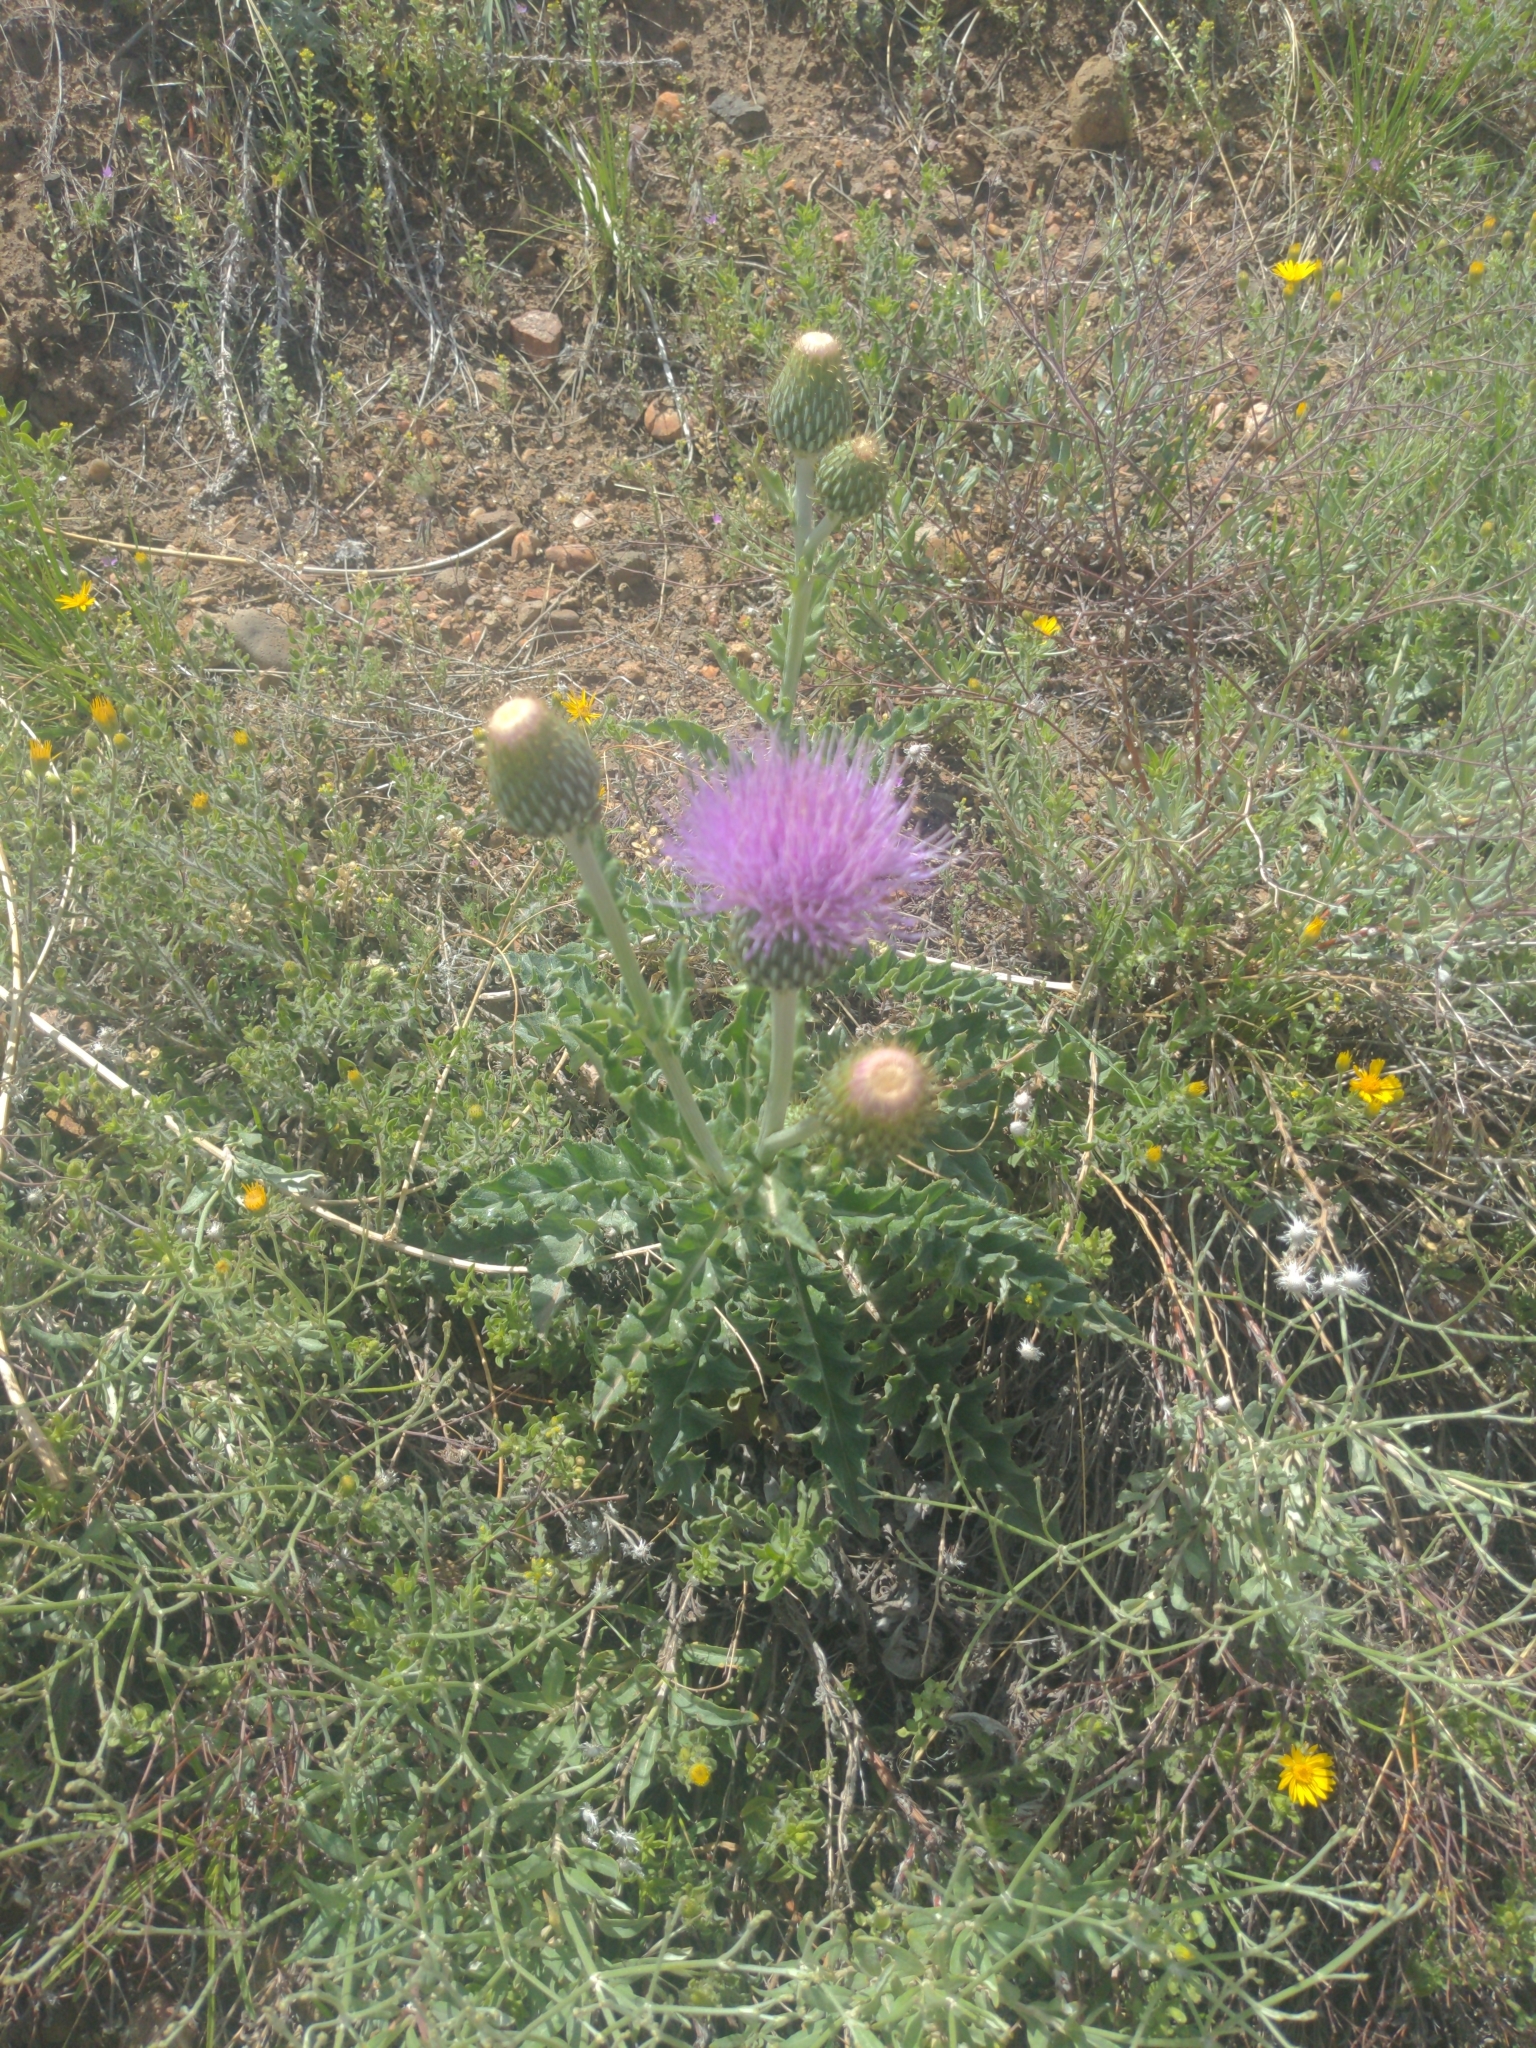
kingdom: Plantae
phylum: Tracheophyta
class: Magnoliopsida
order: Asterales
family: Asteraceae
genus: Cirsium
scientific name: Cirsium undulatum
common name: Pasture thistle
